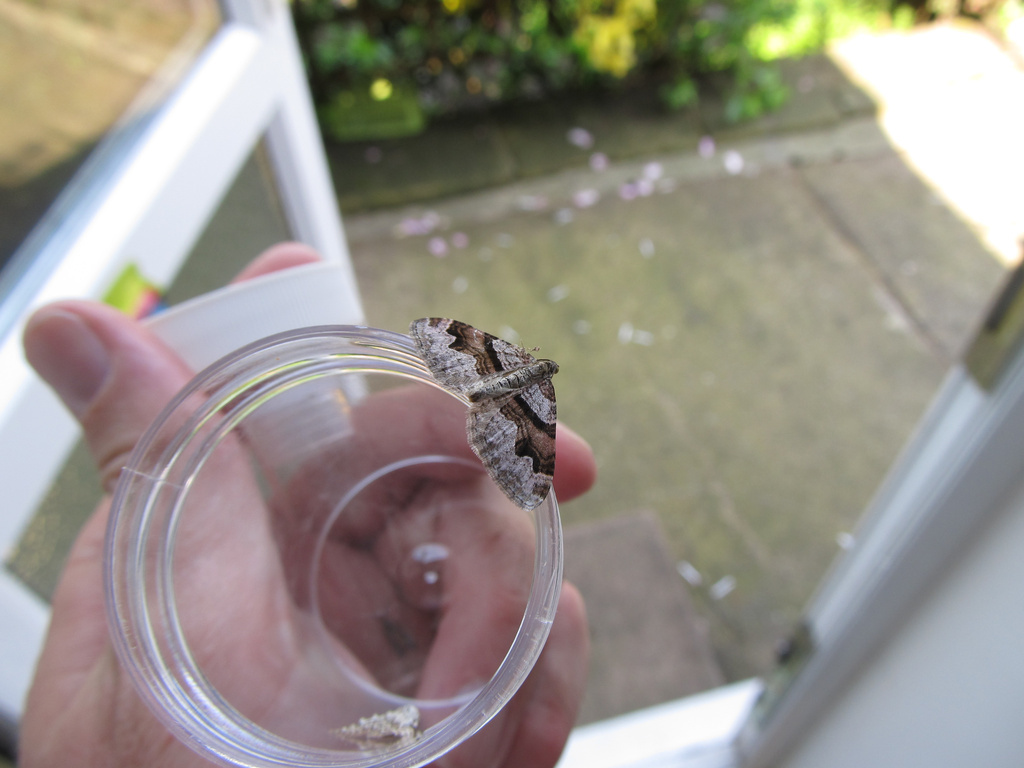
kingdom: Animalia
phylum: Arthropoda
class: Insecta
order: Lepidoptera
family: Geometridae
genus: Xanthorhoe
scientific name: Xanthorhoe designata
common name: Flame carpet
